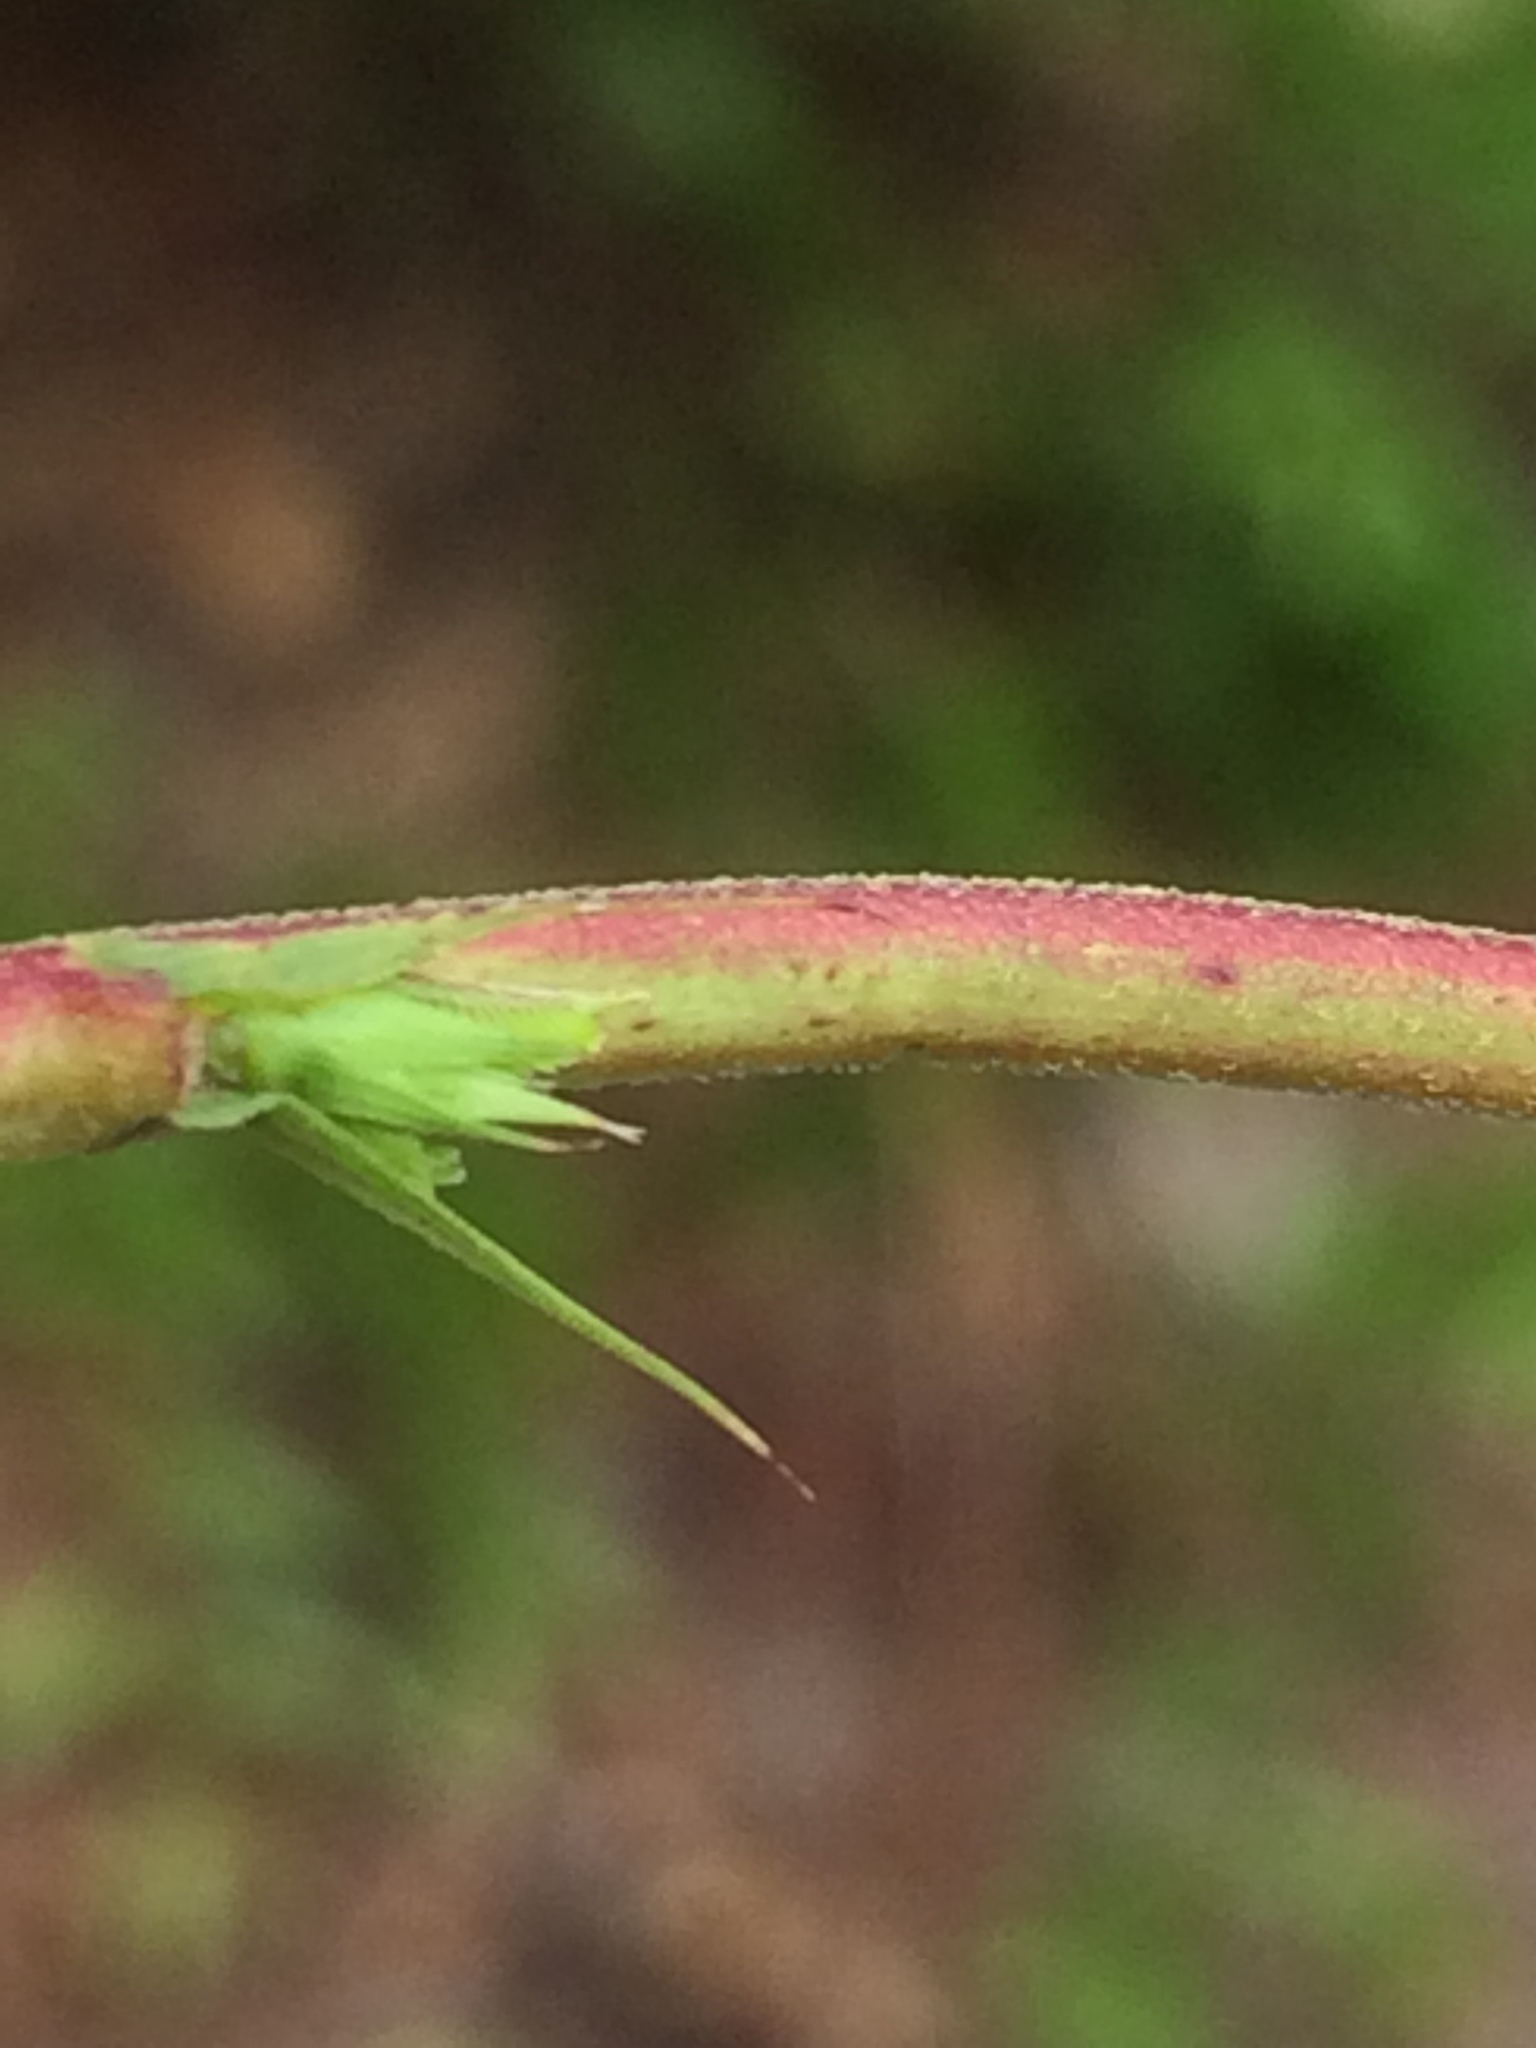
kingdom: Plantae
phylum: Tracheophyta
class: Magnoliopsida
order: Fabales
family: Fabaceae
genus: Chamaecrista
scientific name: Chamaecrista fasciculata
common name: Golden cassia
